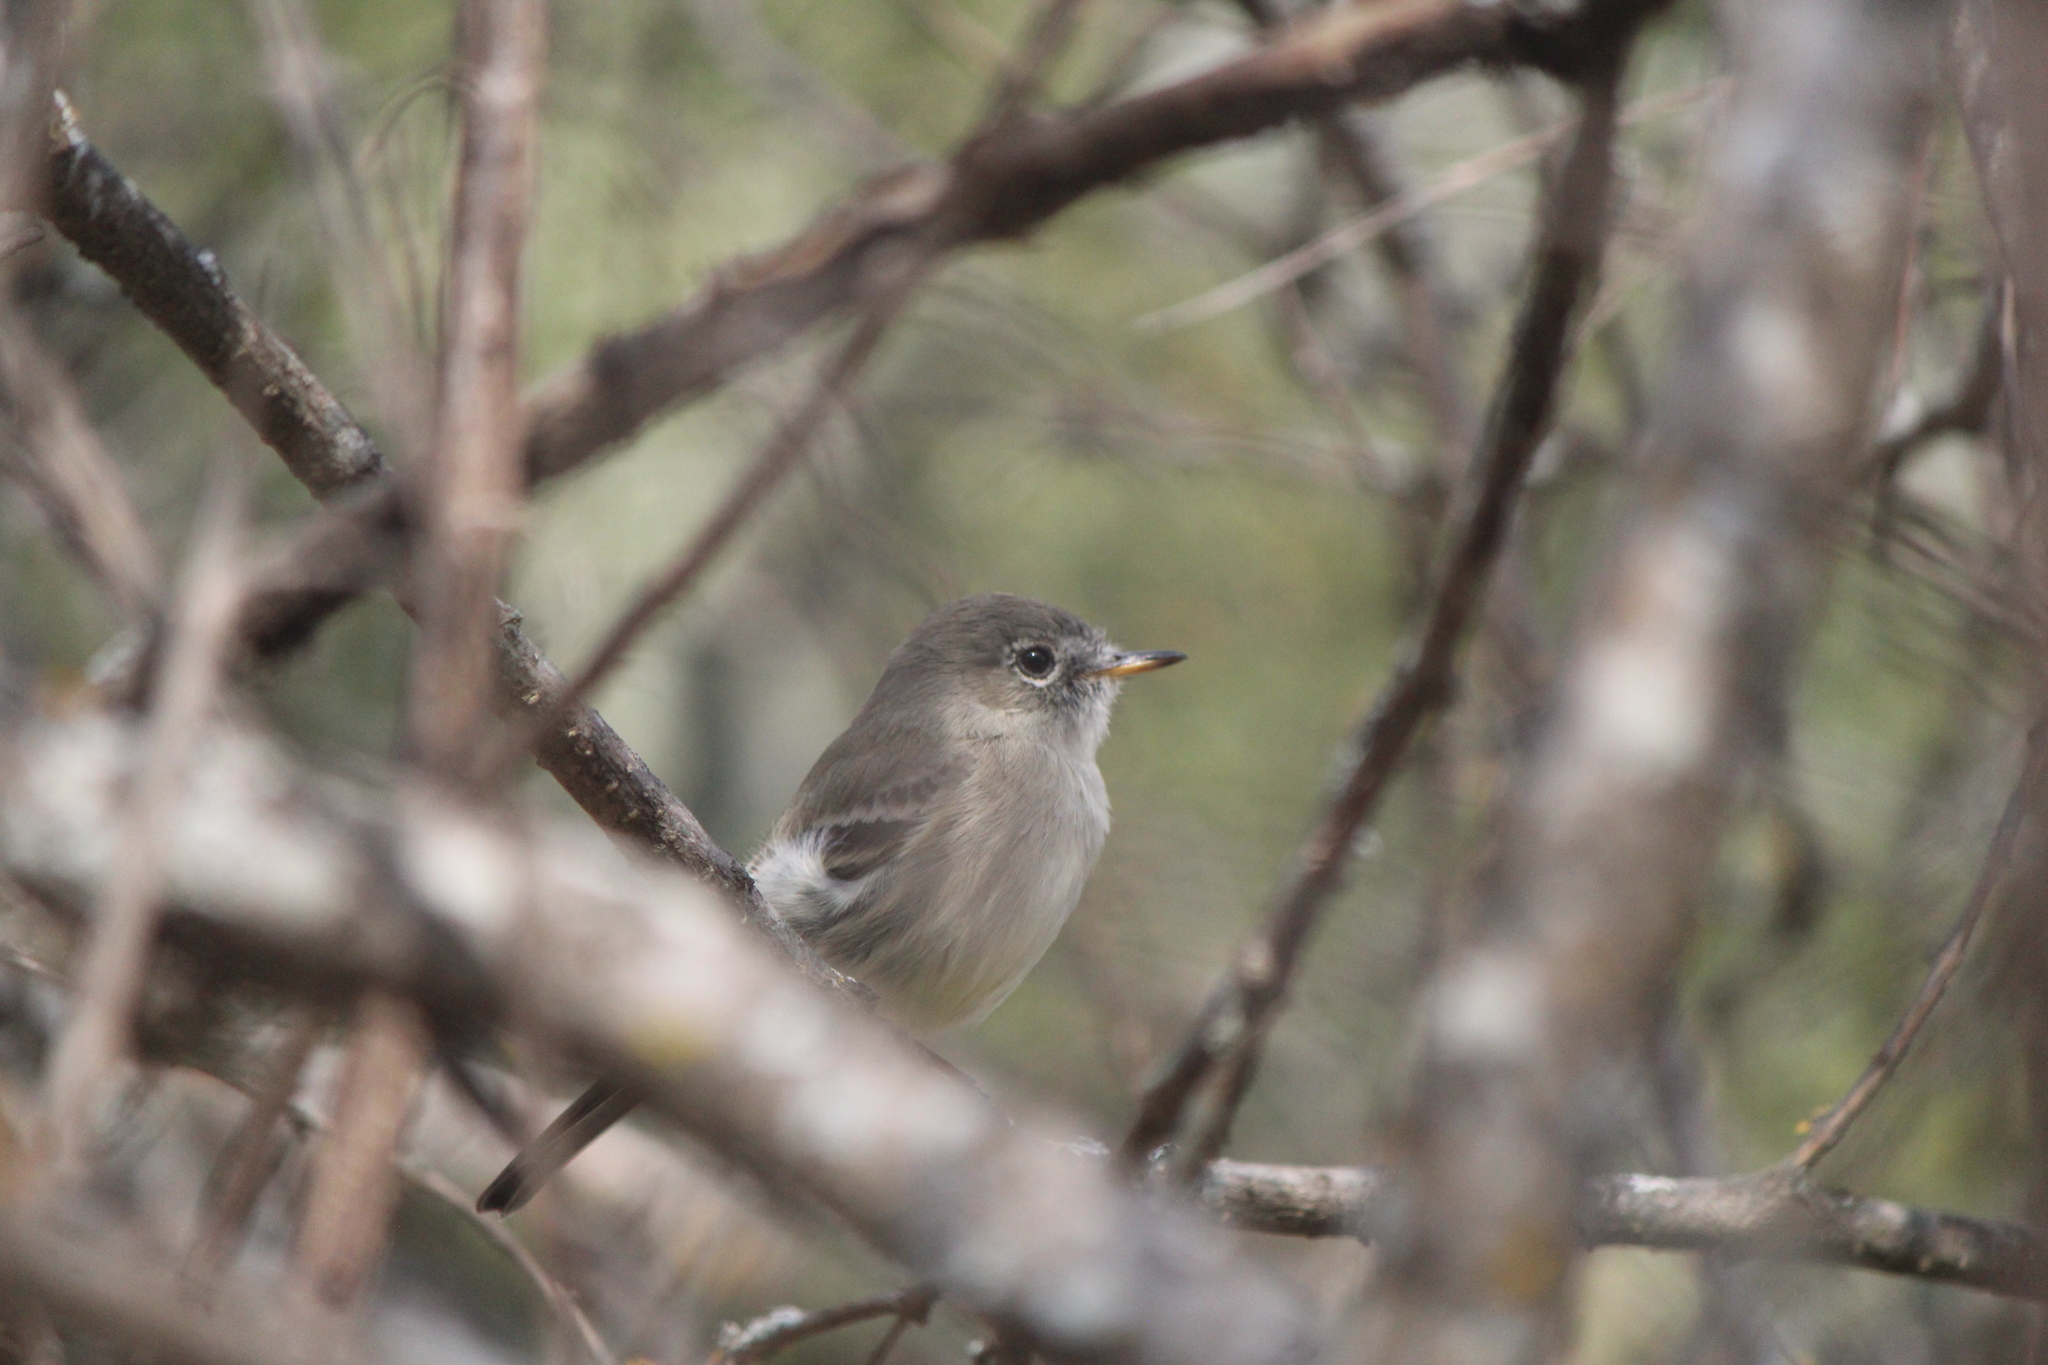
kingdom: Animalia
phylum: Chordata
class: Aves
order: Passeriformes
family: Tyrannidae
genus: Empidonax
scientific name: Empidonax wrightii
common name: Gray flycatcher
